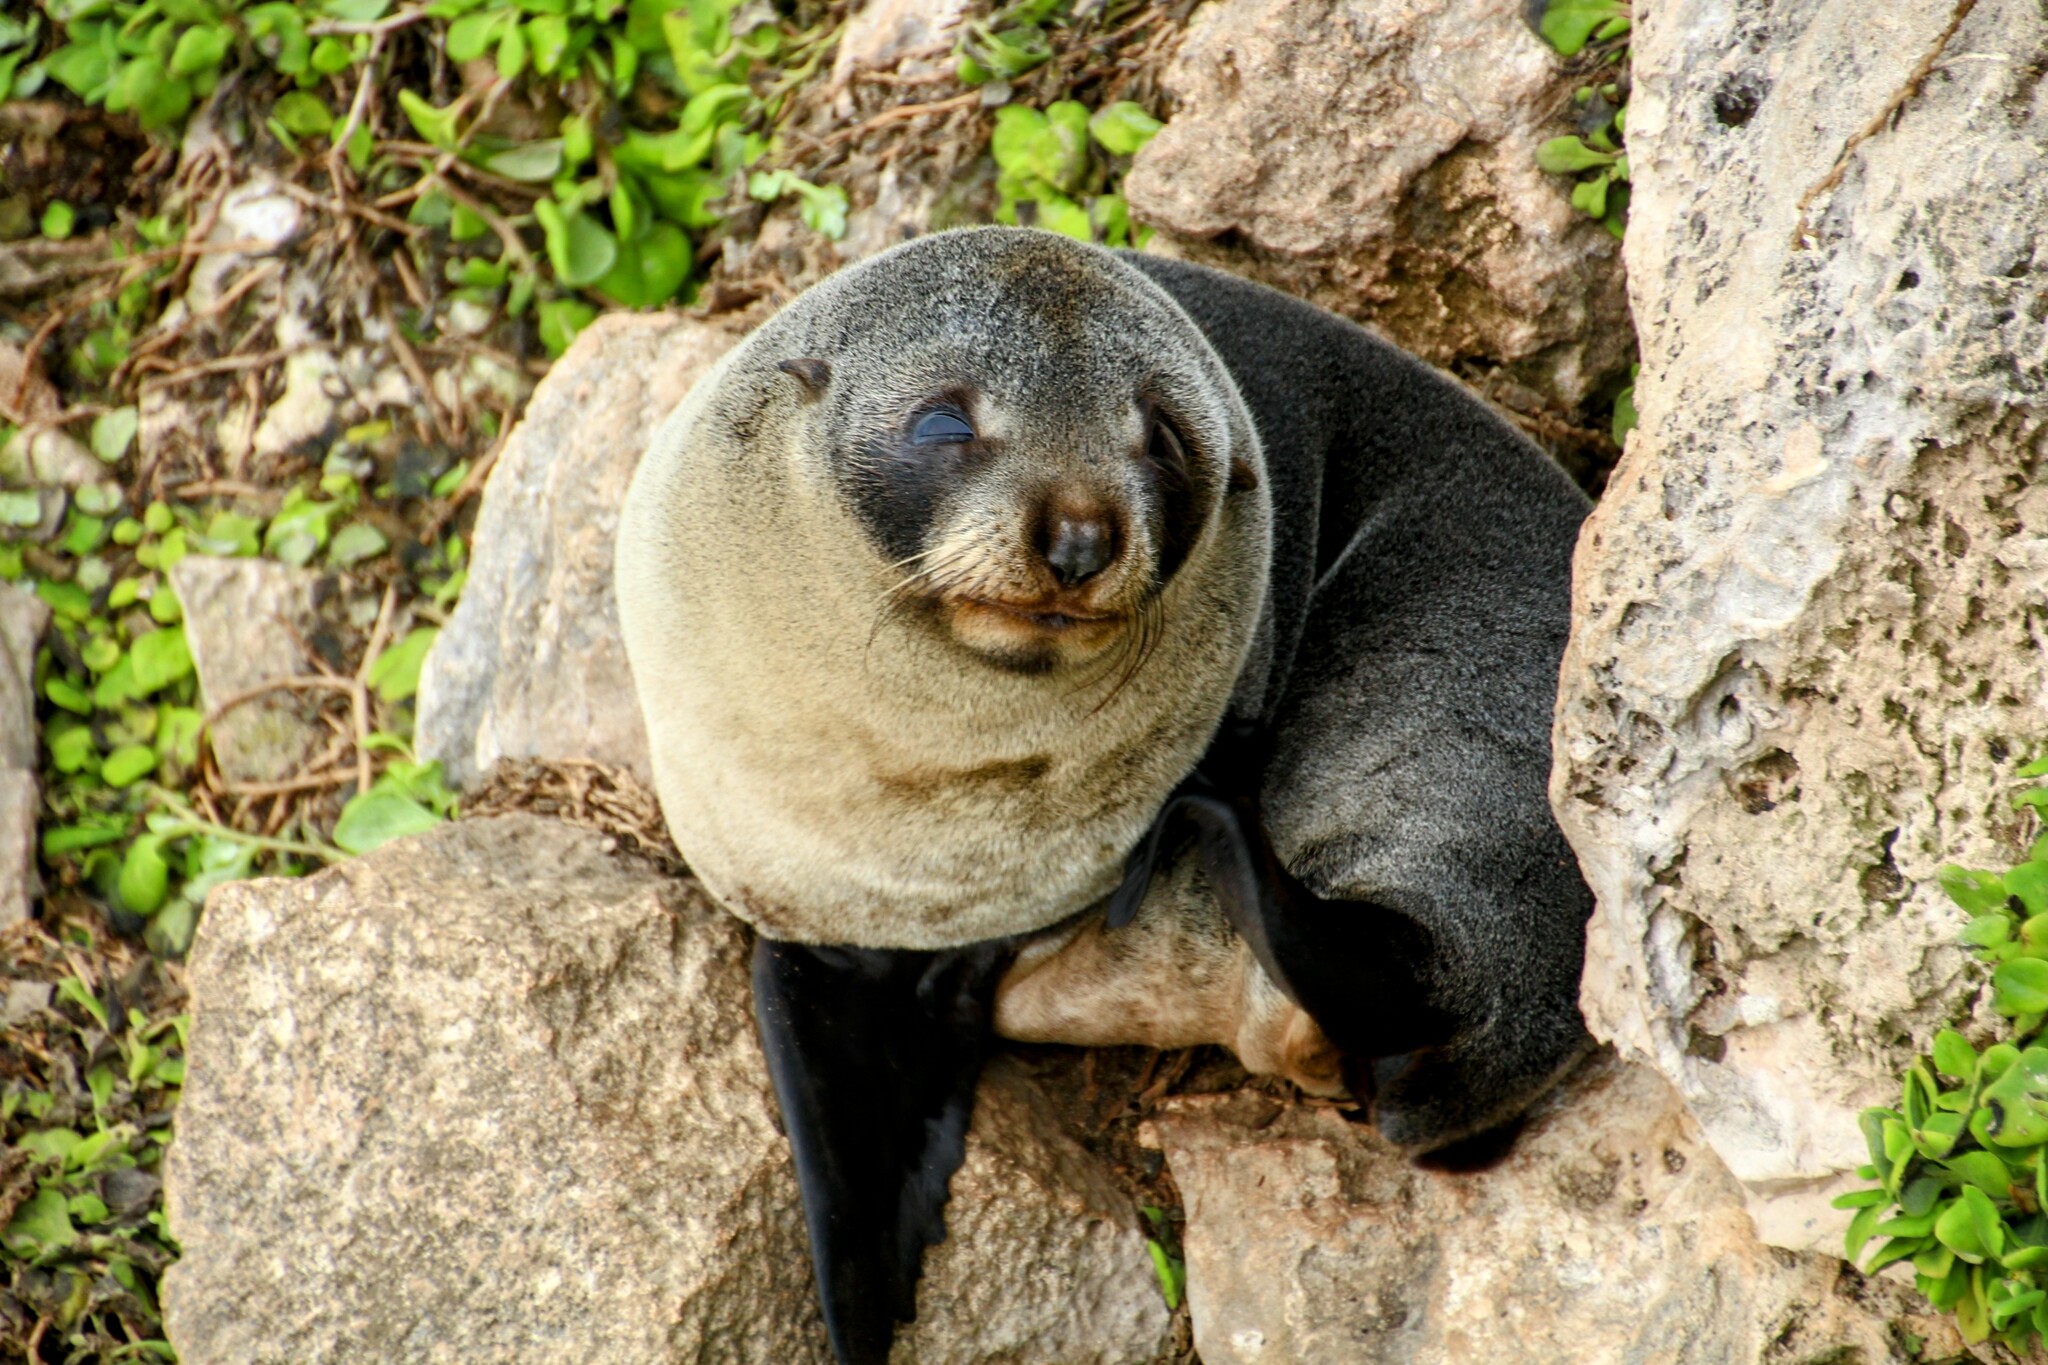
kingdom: Animalia
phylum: Chordata
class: Mammalia
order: Carnivora
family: Otariidae
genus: Arctocephalus
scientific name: Arctocephalus forsteri
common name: New zealand fur seal
